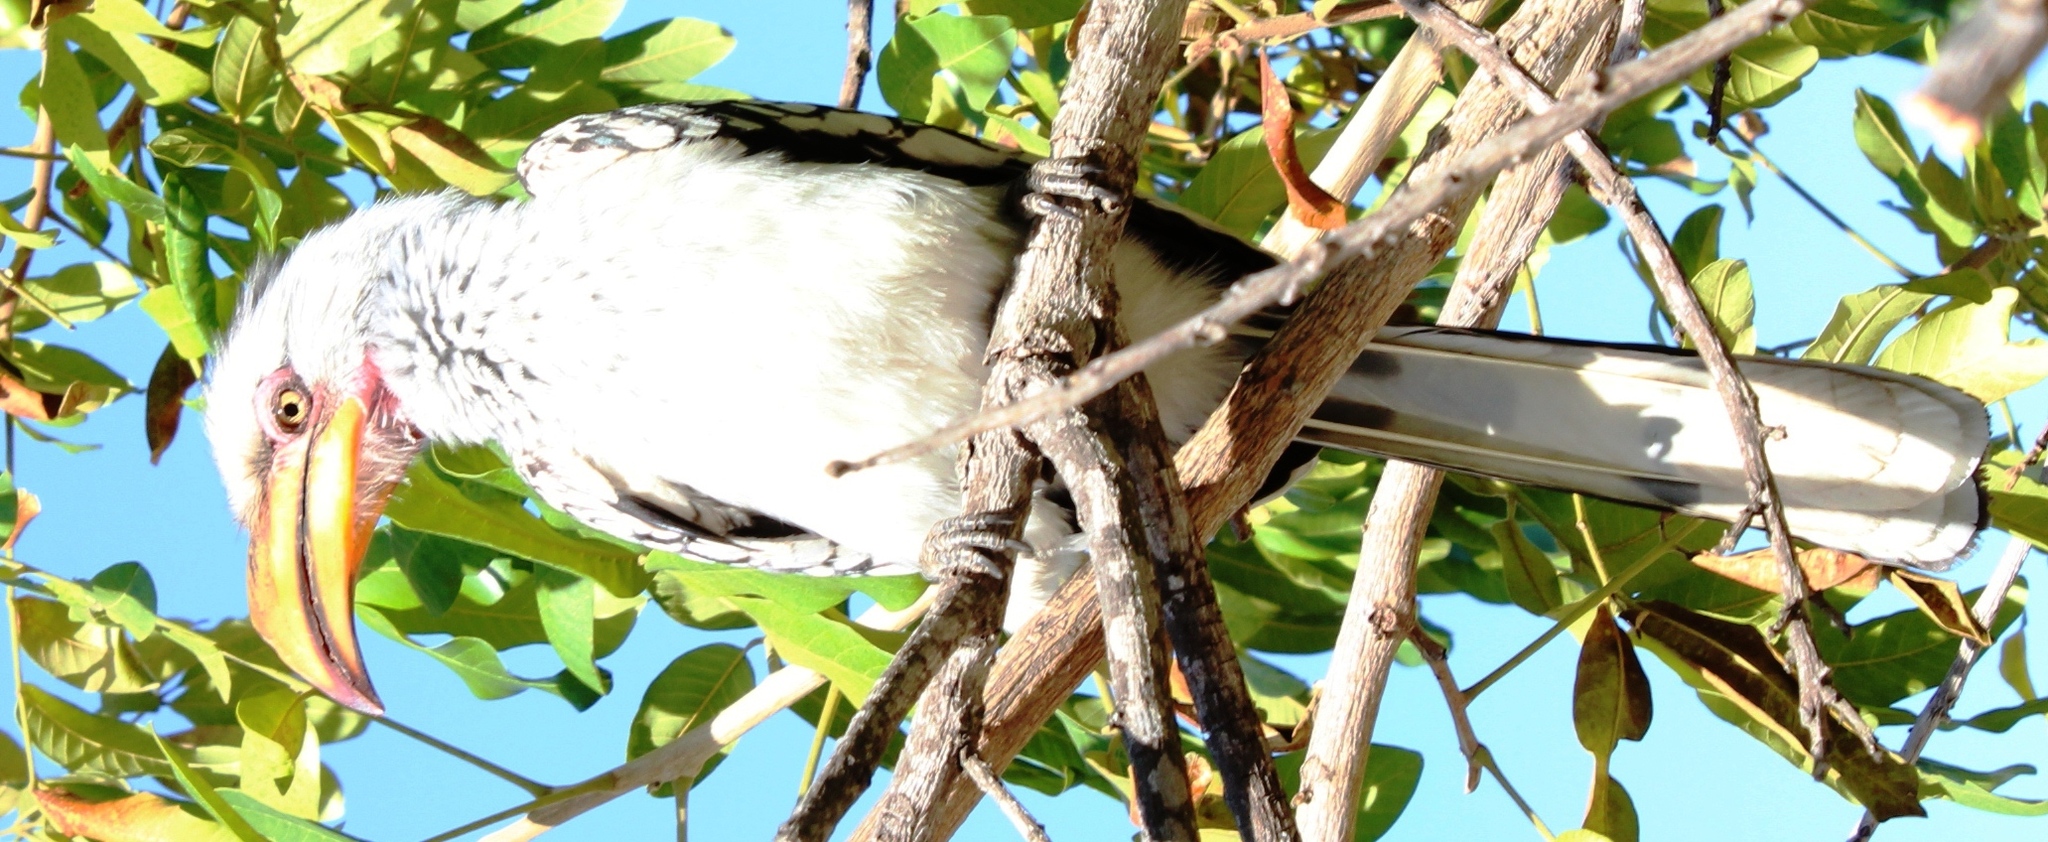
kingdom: Animalia
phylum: Chordata
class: Aves
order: Bucerotiformes
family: Bucerotidae
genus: Tockus
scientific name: Tockus leucomelas
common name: Southern yellow-billed hornbill
